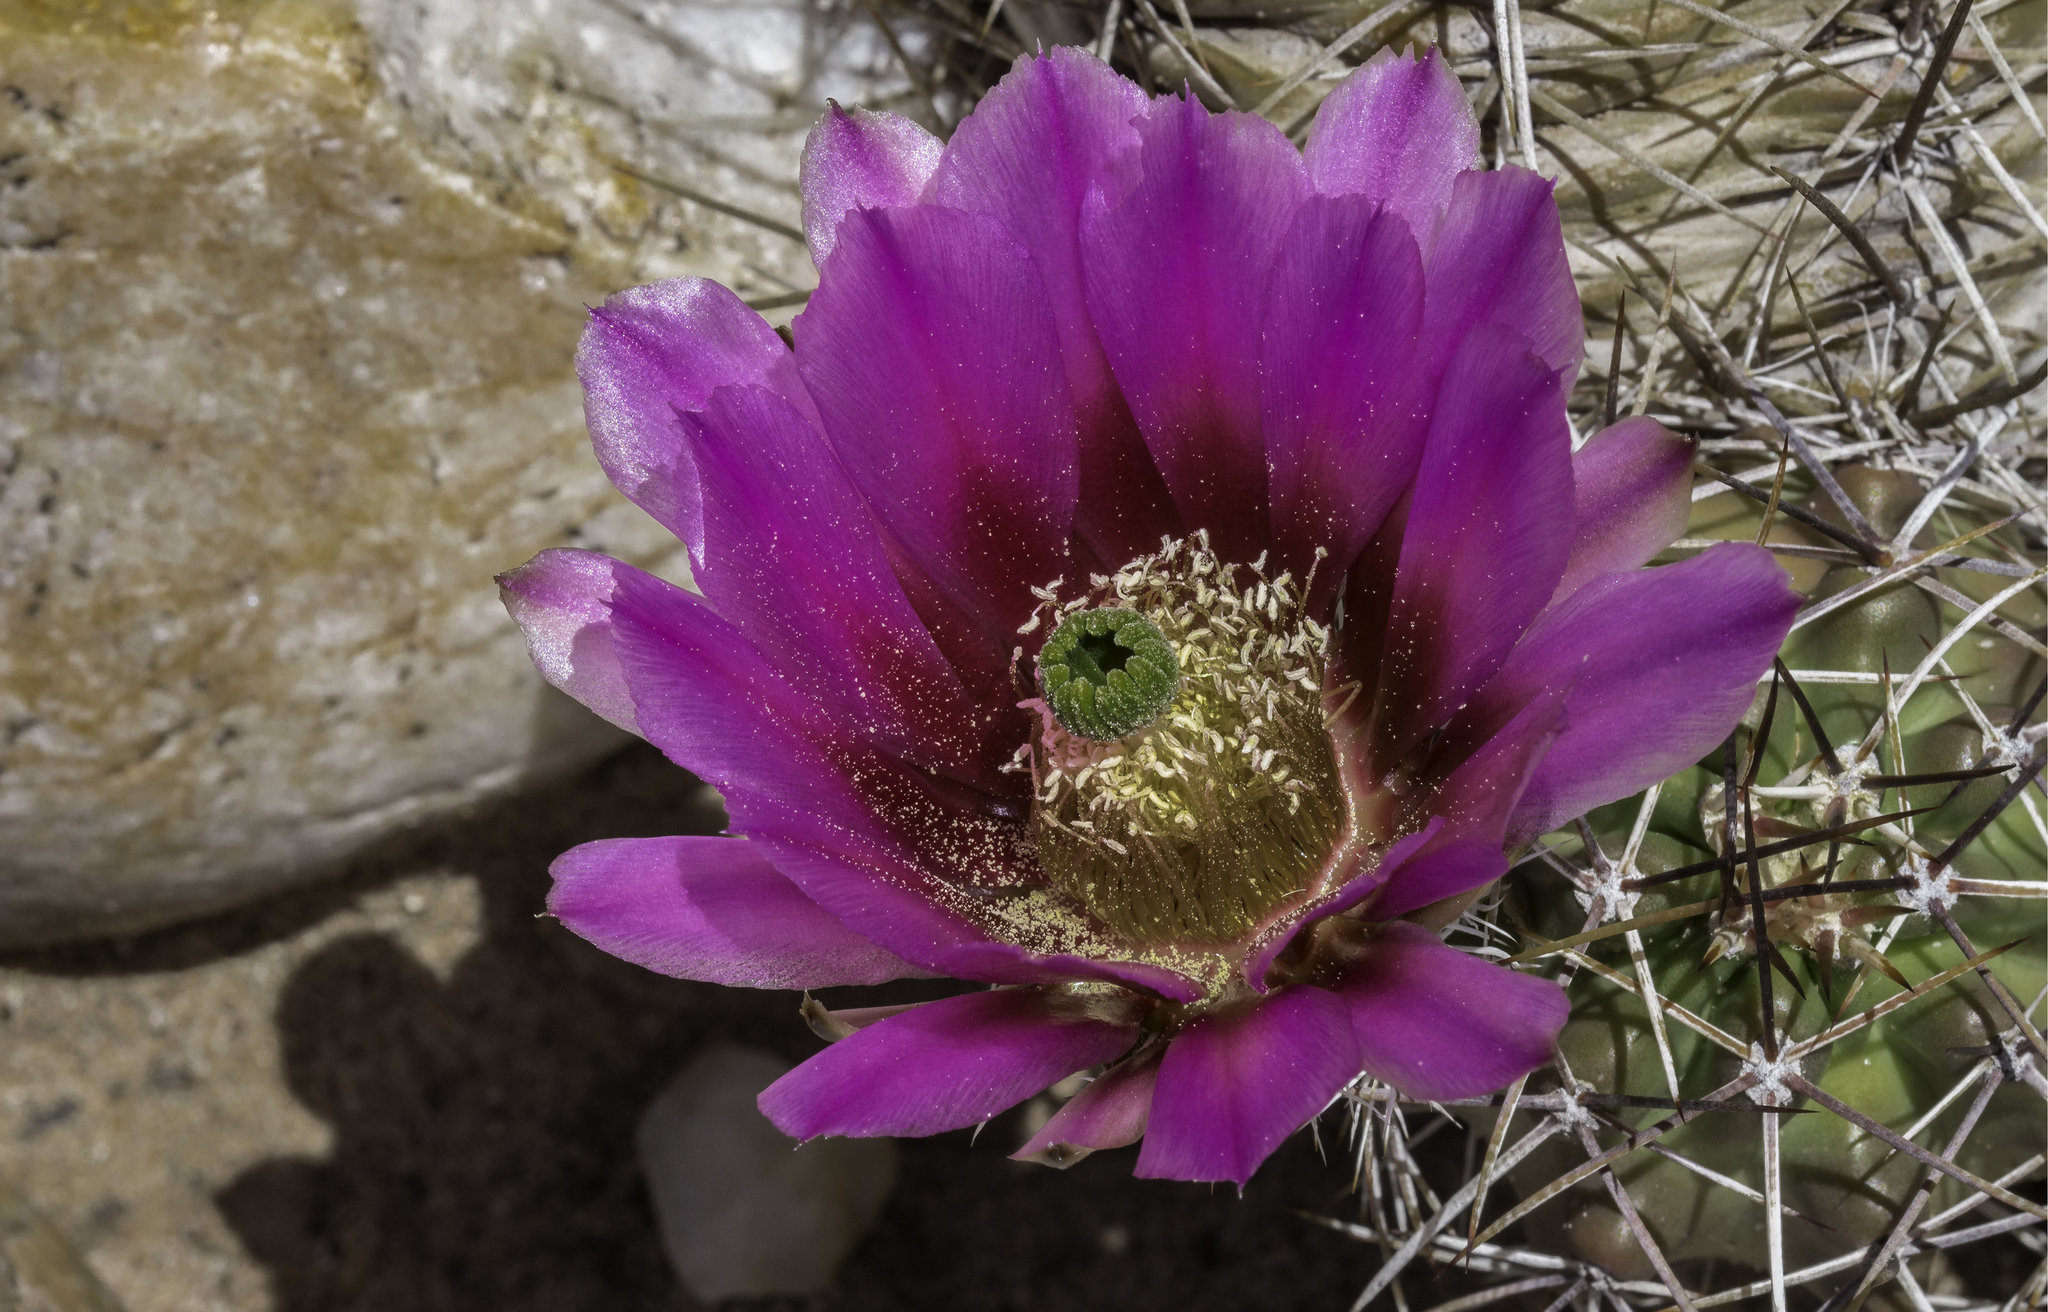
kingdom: Plantae
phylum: Tracheophyta
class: Magnoliopsida
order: Caryophyllales
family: Cactaceae
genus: Echinocereus
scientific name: Echinocereus fendleri
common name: Fendler's hedgehog cactus
